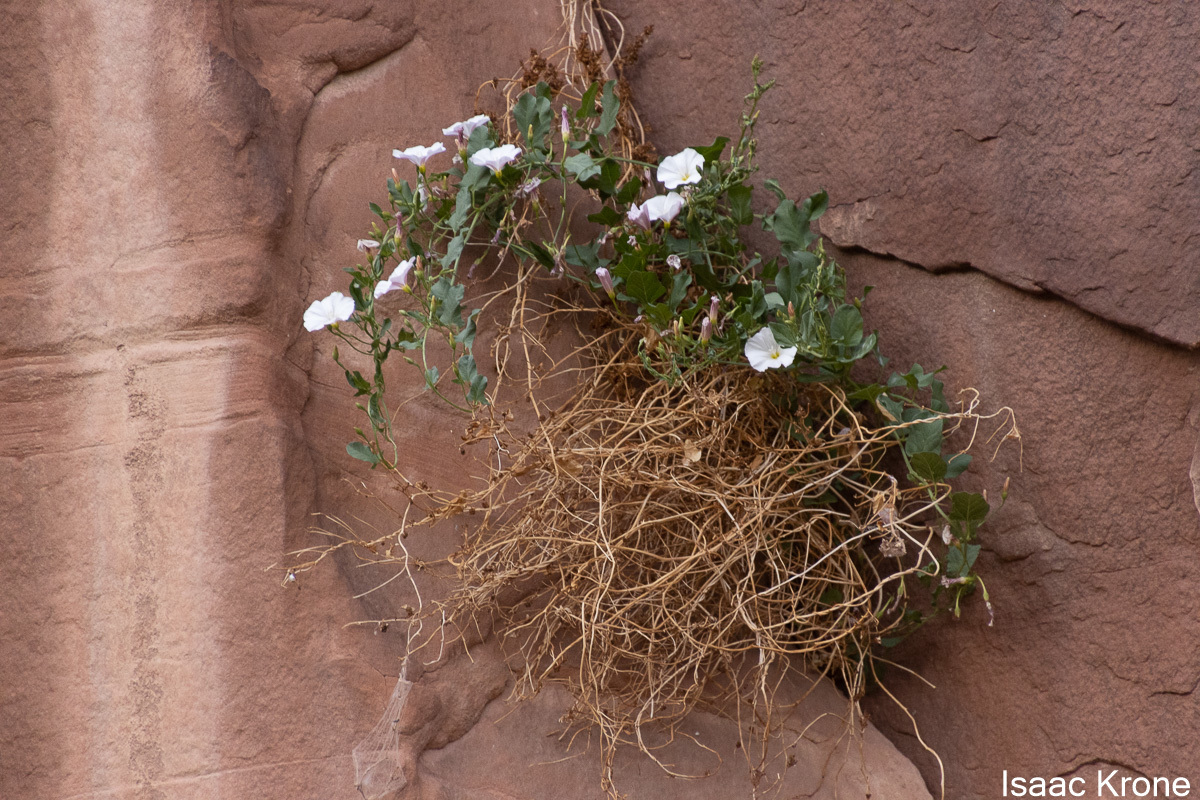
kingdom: Plantae
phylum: Tracheophyta
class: Magnoliopsida
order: Solanales
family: Convolvulaceae
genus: Convolvulus
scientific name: Convolvulus arvensis
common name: Field bindweed
